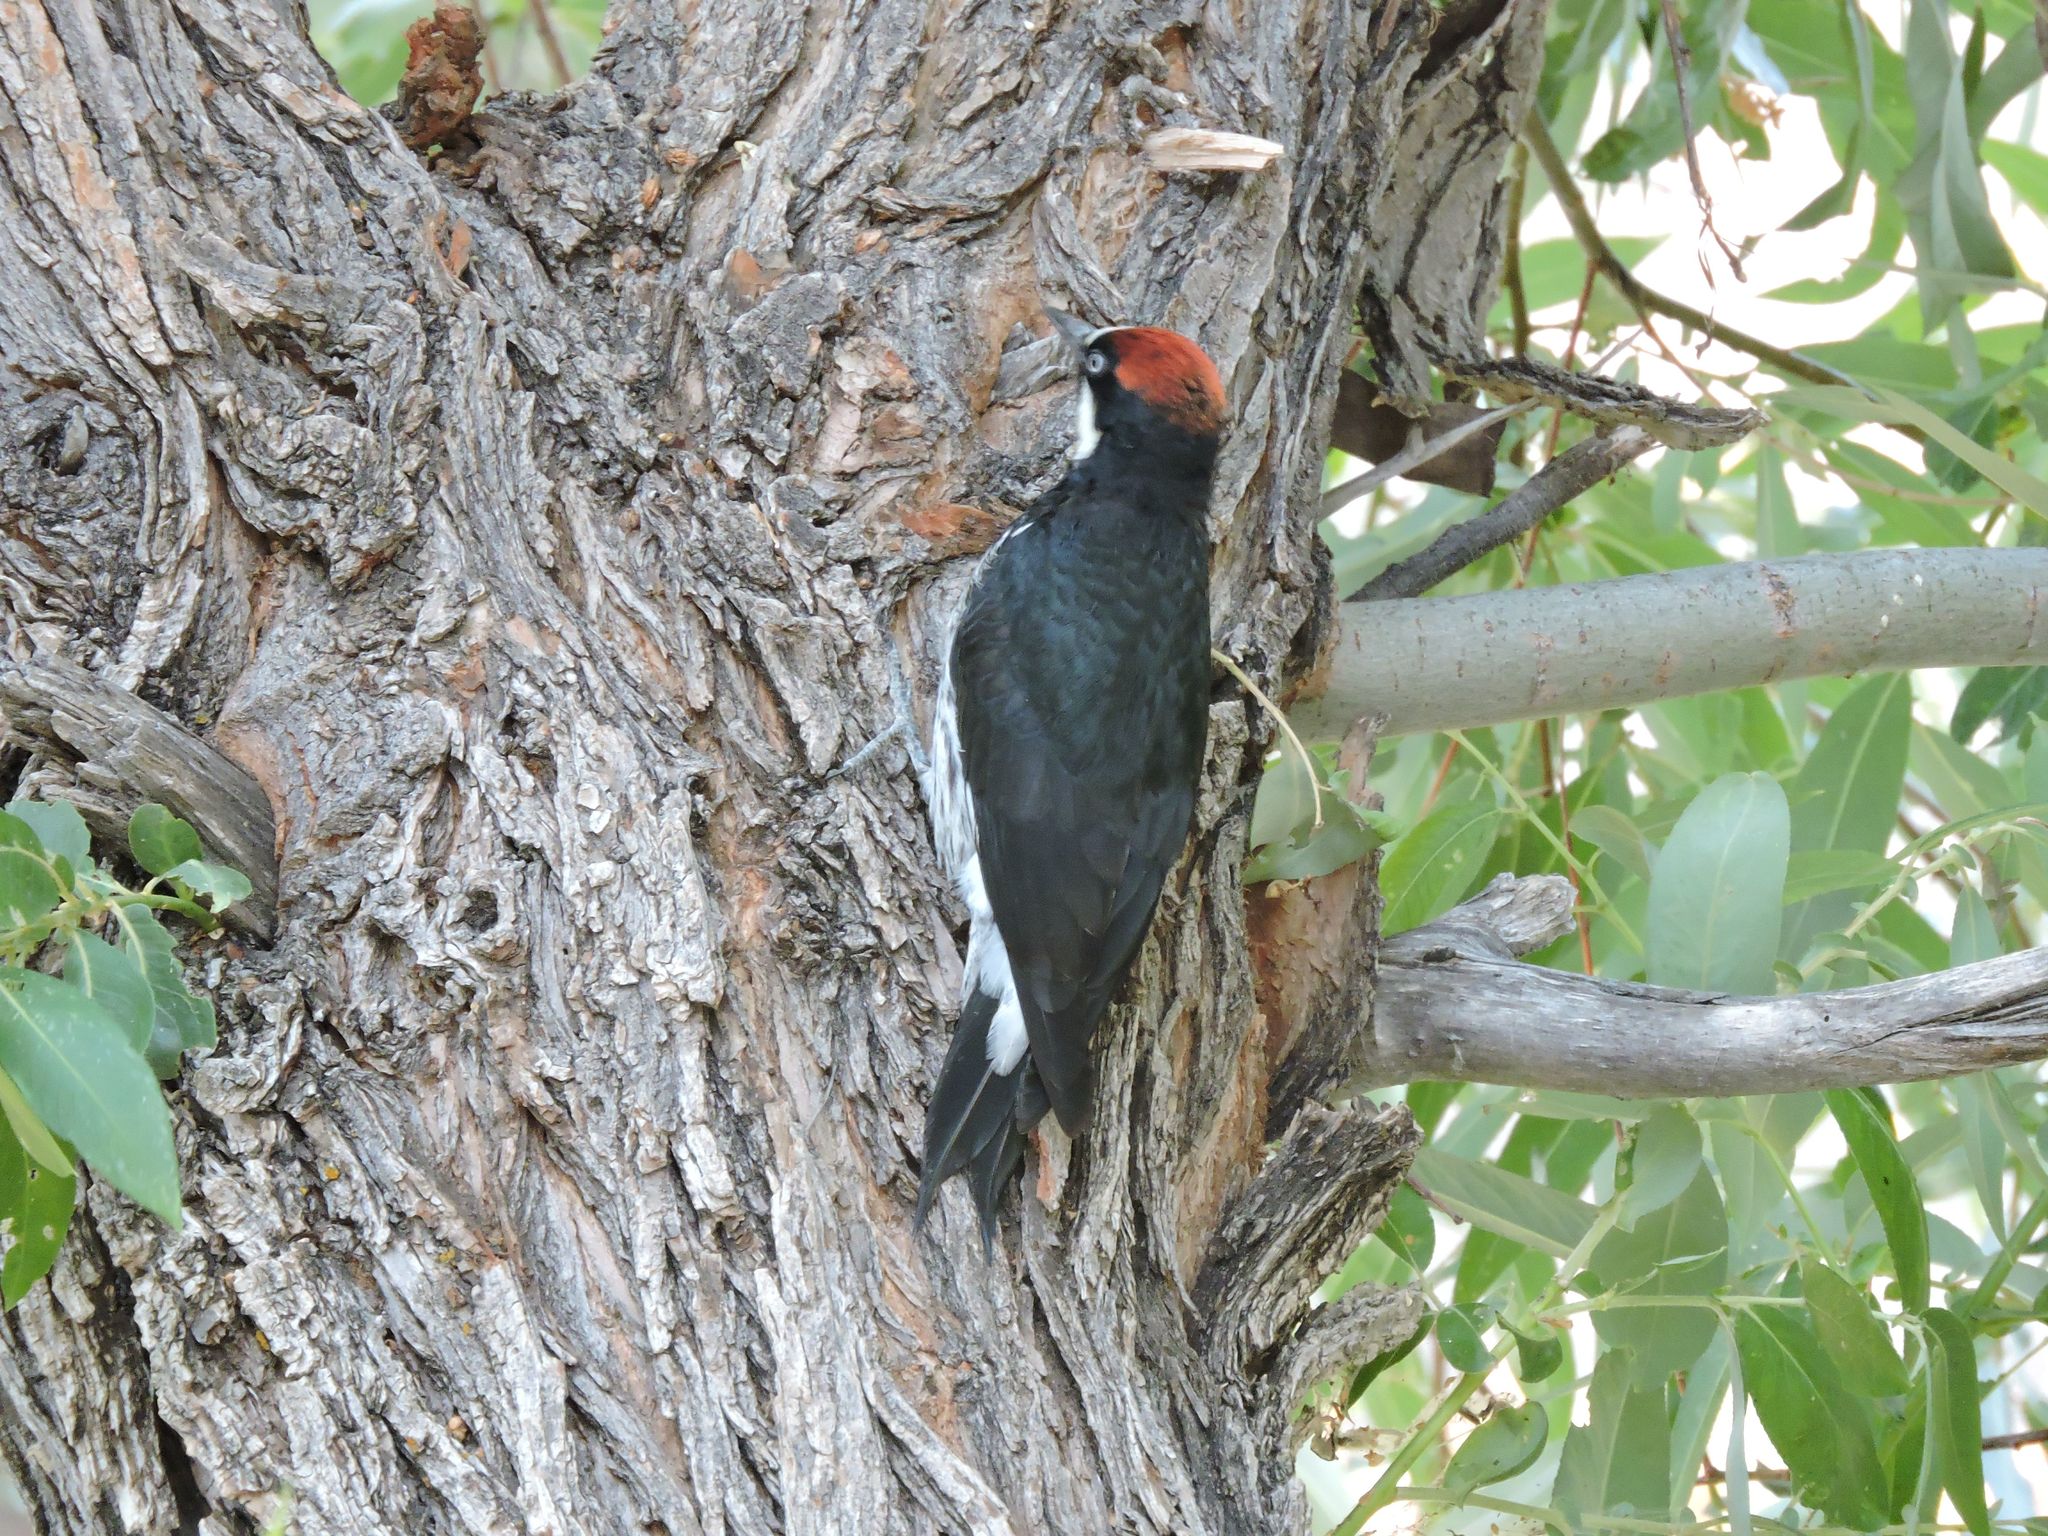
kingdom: Animalia
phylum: Chordata
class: Aves
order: Piciformes
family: Picidae
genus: Melanerpes
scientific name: Melanerpes formicivorus
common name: Acorn woodpecker
